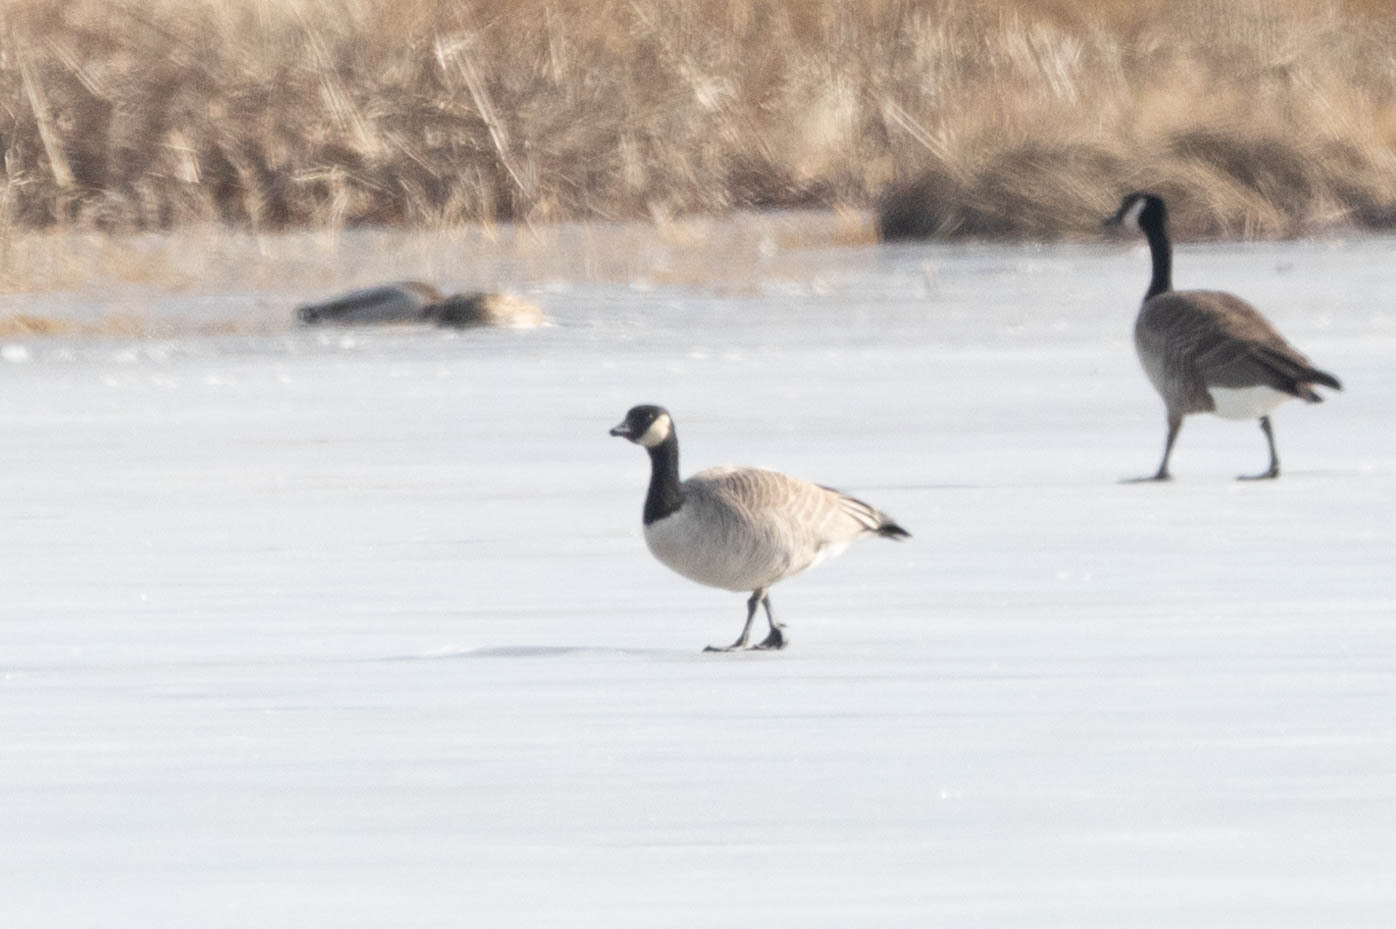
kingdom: Animalia
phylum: Chordata
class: Aves
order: Anseriformes
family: Anatidae
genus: Branta
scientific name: Branta hutchinsii
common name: Cackling goose
